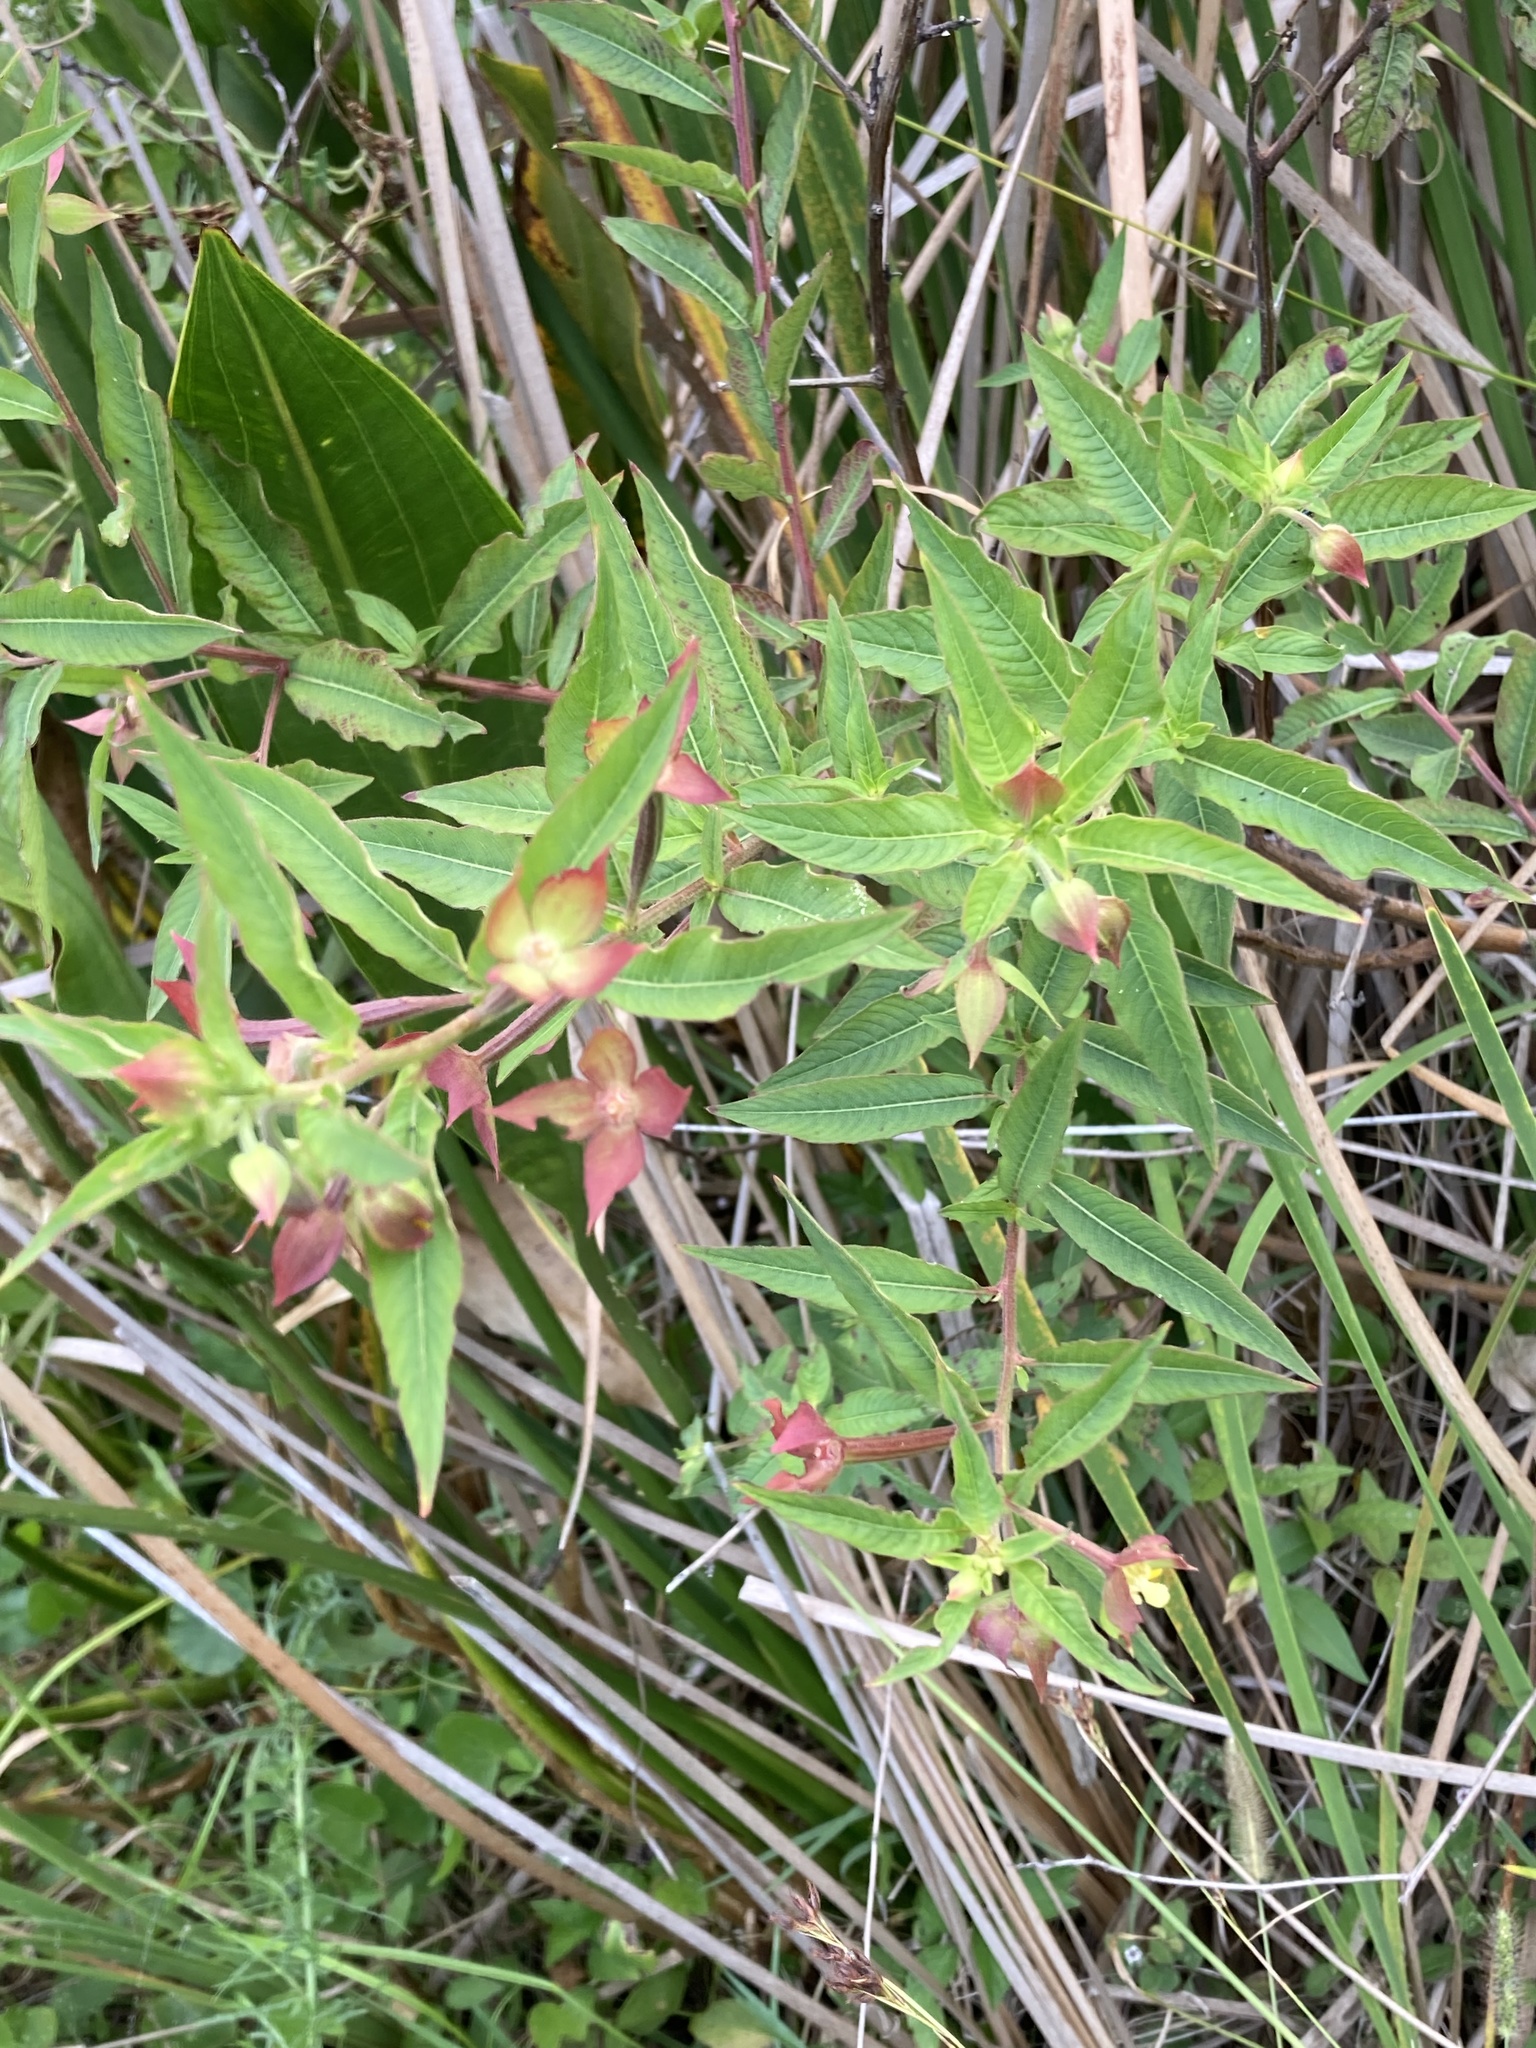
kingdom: Plantae
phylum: Tracheophyta
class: Magnoliopsida
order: Myrtales
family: Onagraceae
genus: Ludwigia
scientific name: Ludwigia octovalvis
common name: Water-primrose
